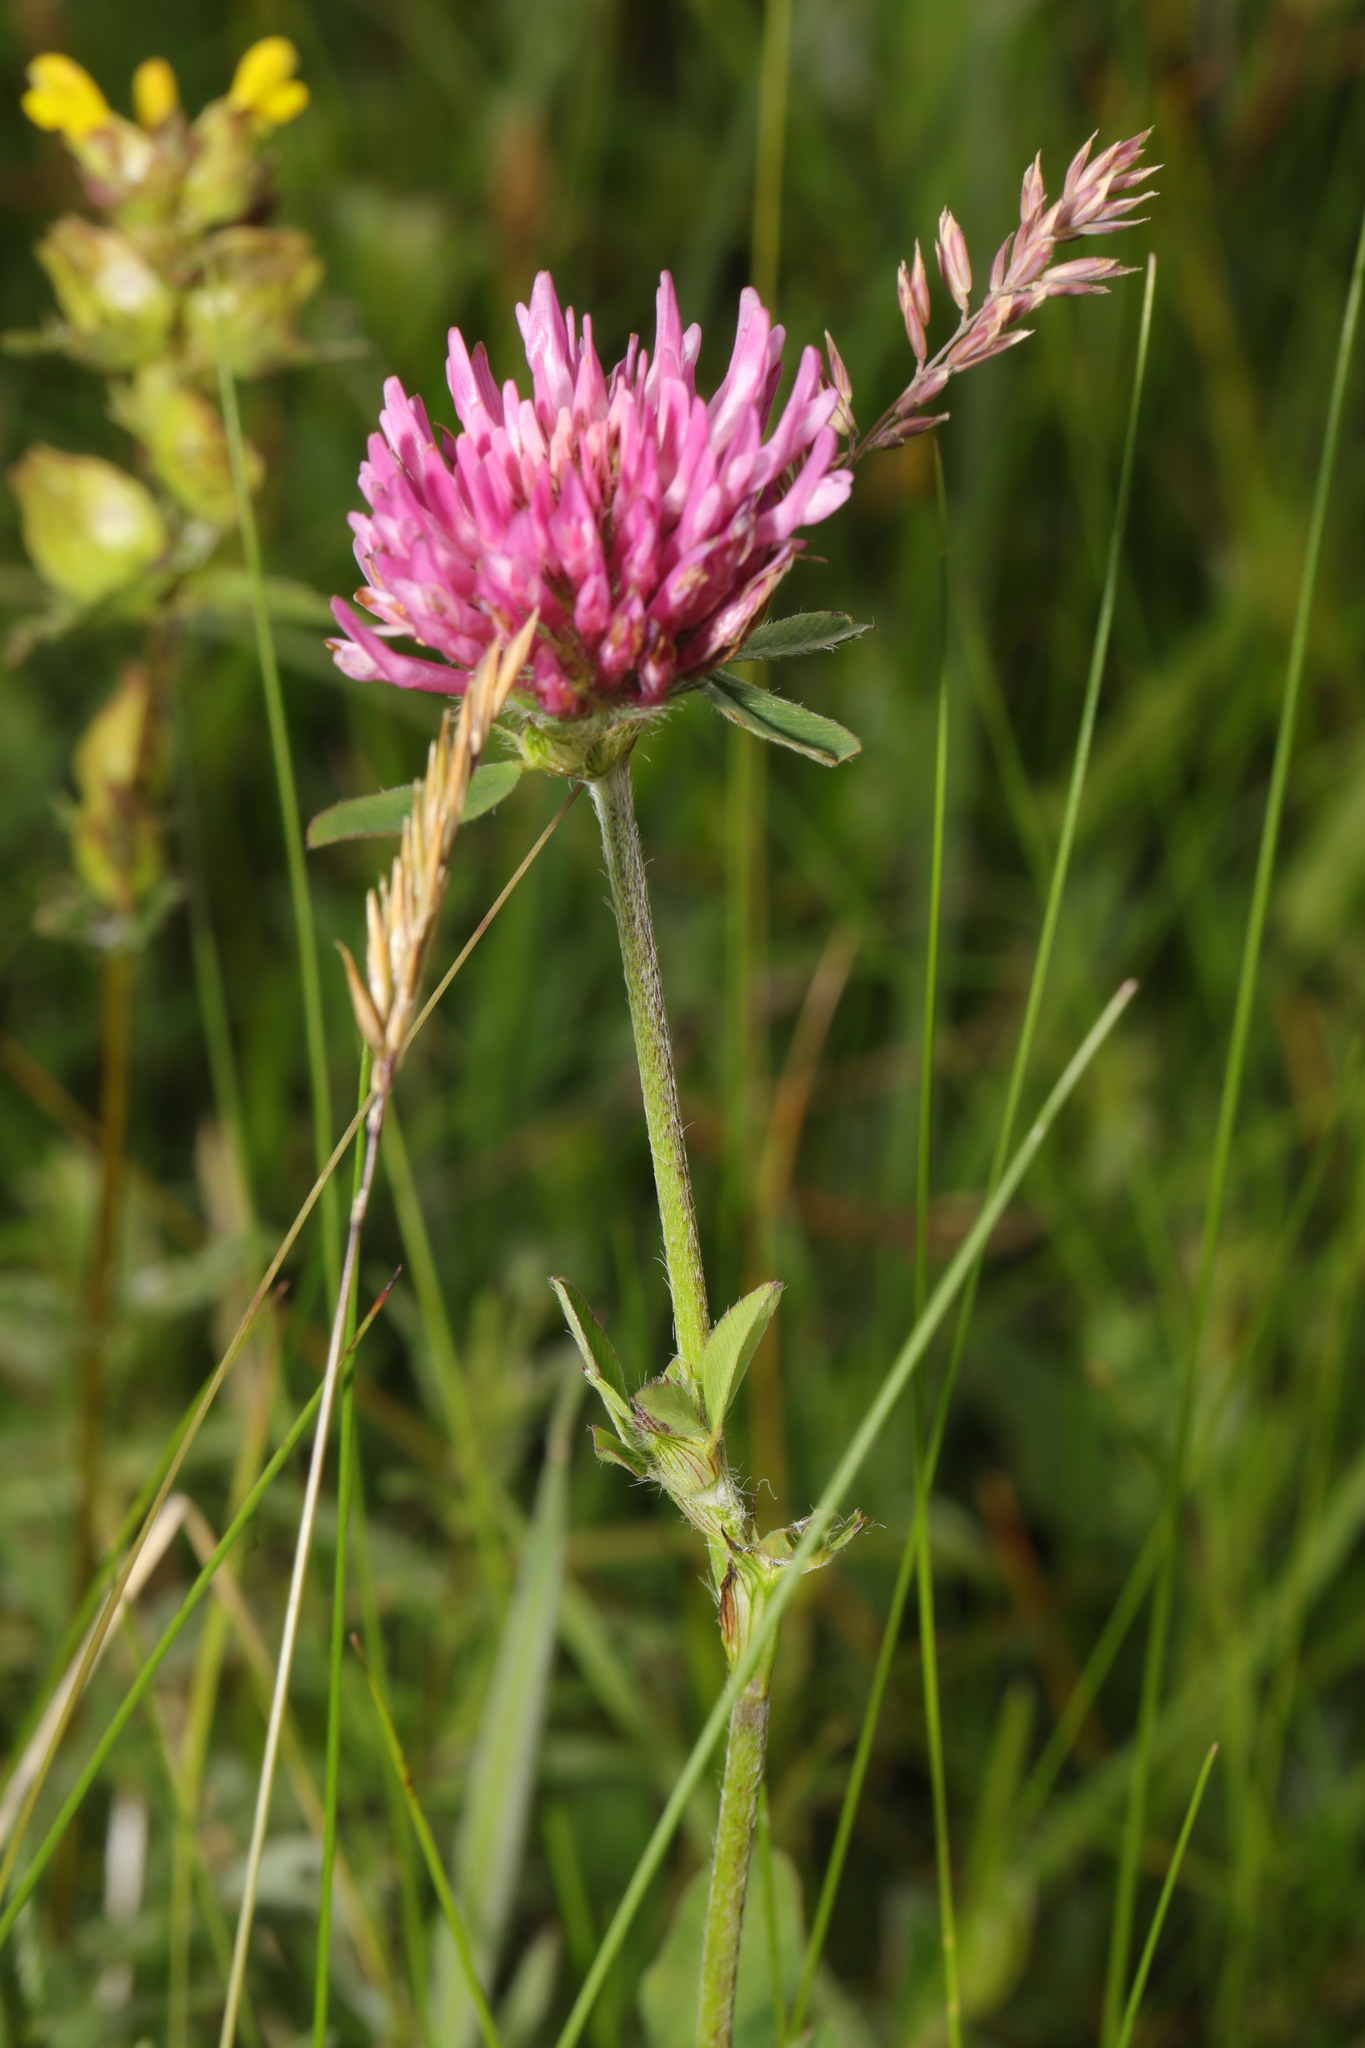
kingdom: Plantae
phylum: Tracheophyta
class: Magnoliopsida
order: Fabales
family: Fabaceae
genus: Trifolium
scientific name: Trifolium pratense
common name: Red clover
